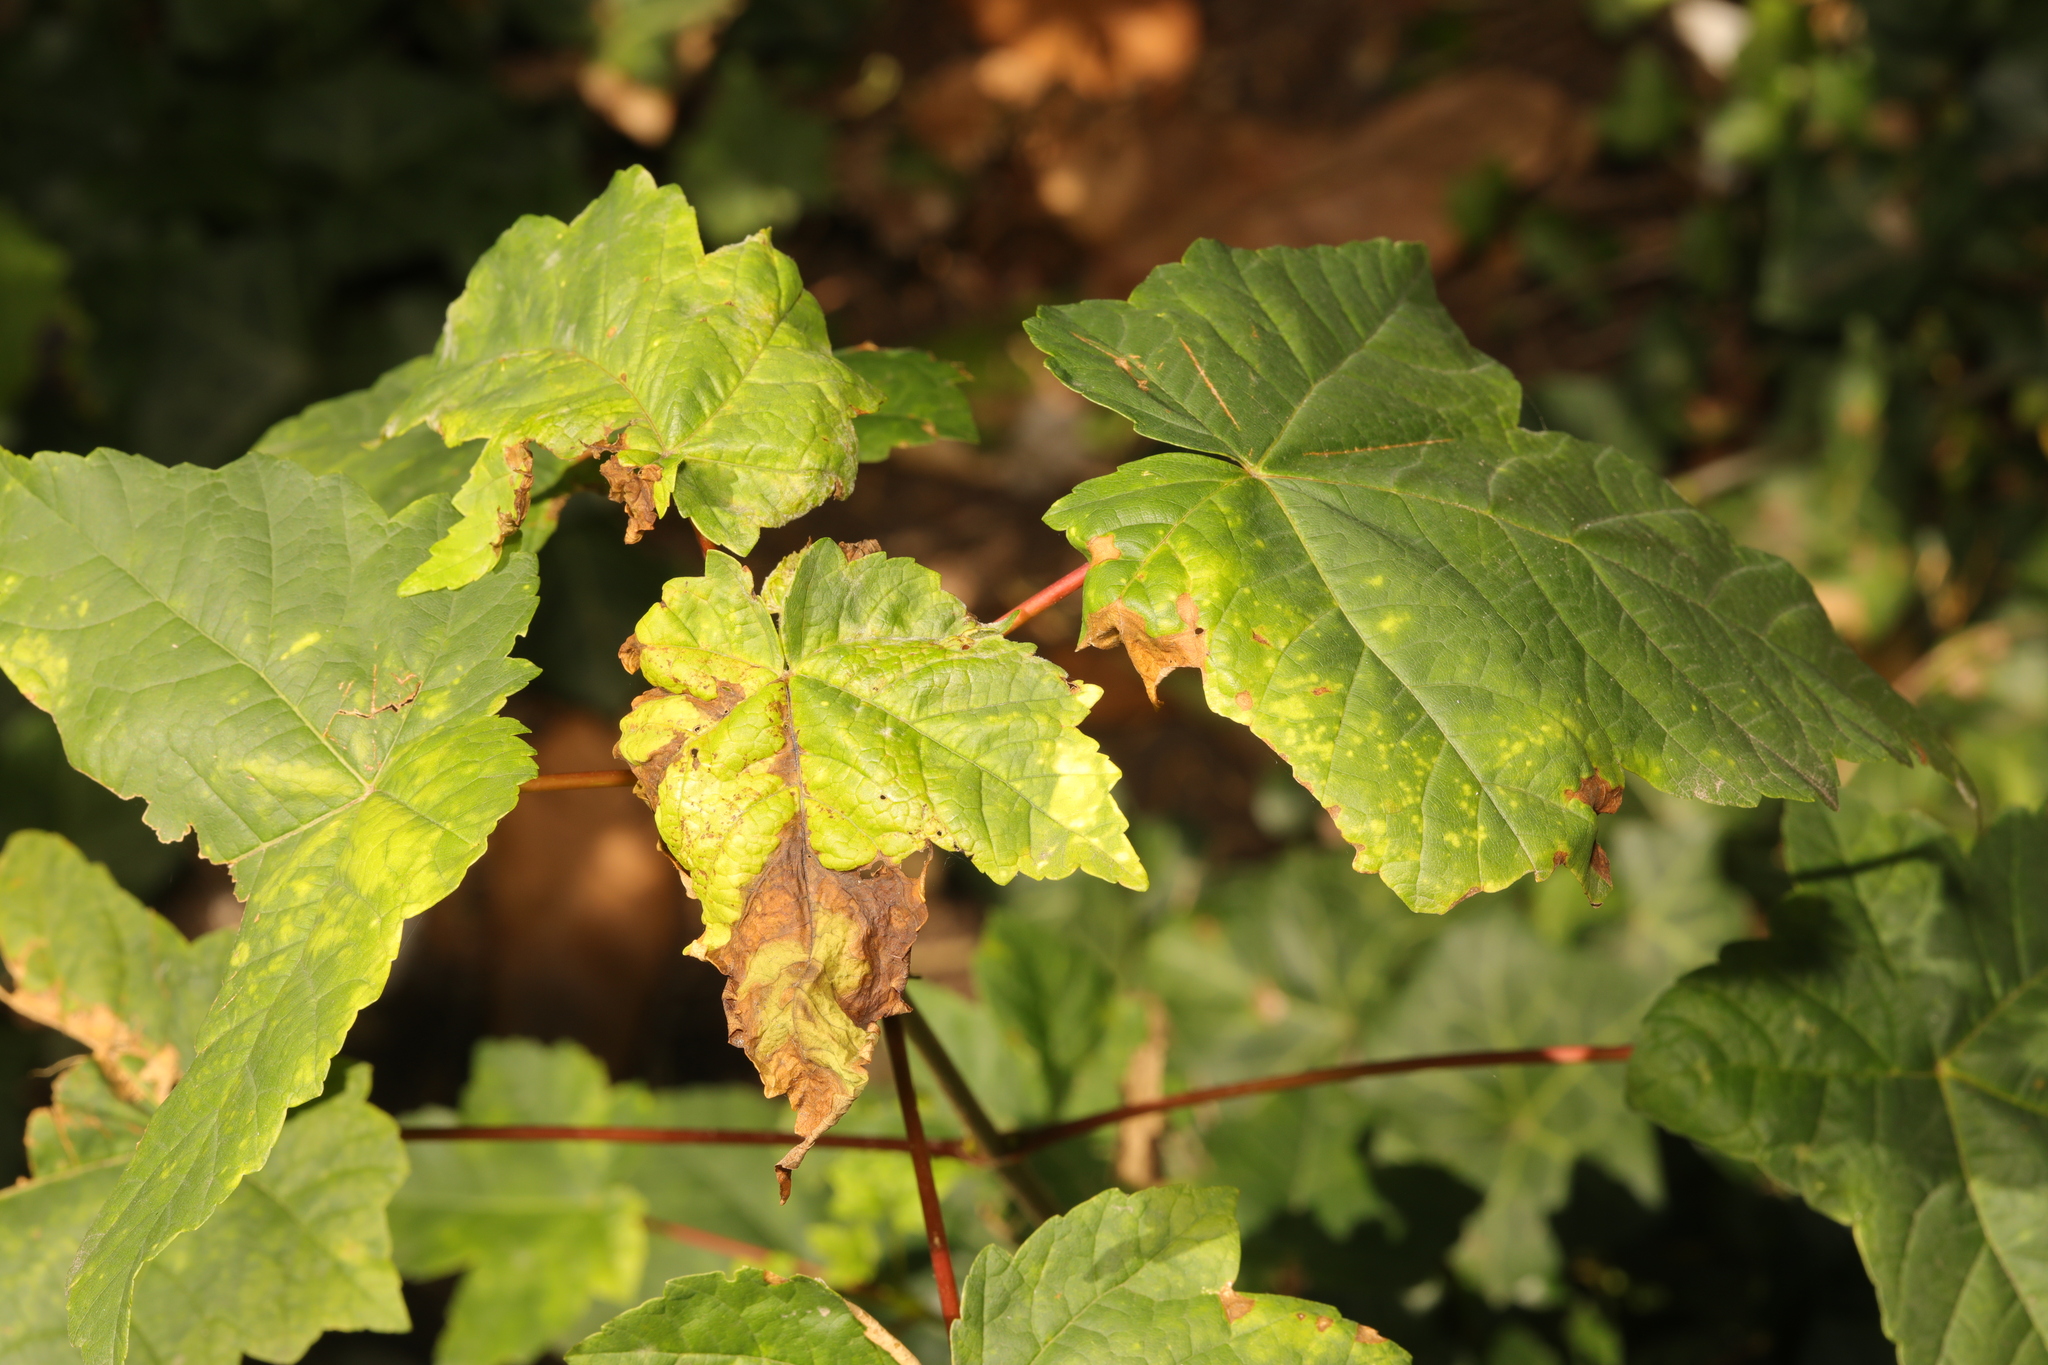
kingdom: Plantae
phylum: Tracheophyta
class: Magnoliopsida
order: Sapindales
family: Sapindaceae
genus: Acer
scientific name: Acer pseudoplatanus
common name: Sycamore
